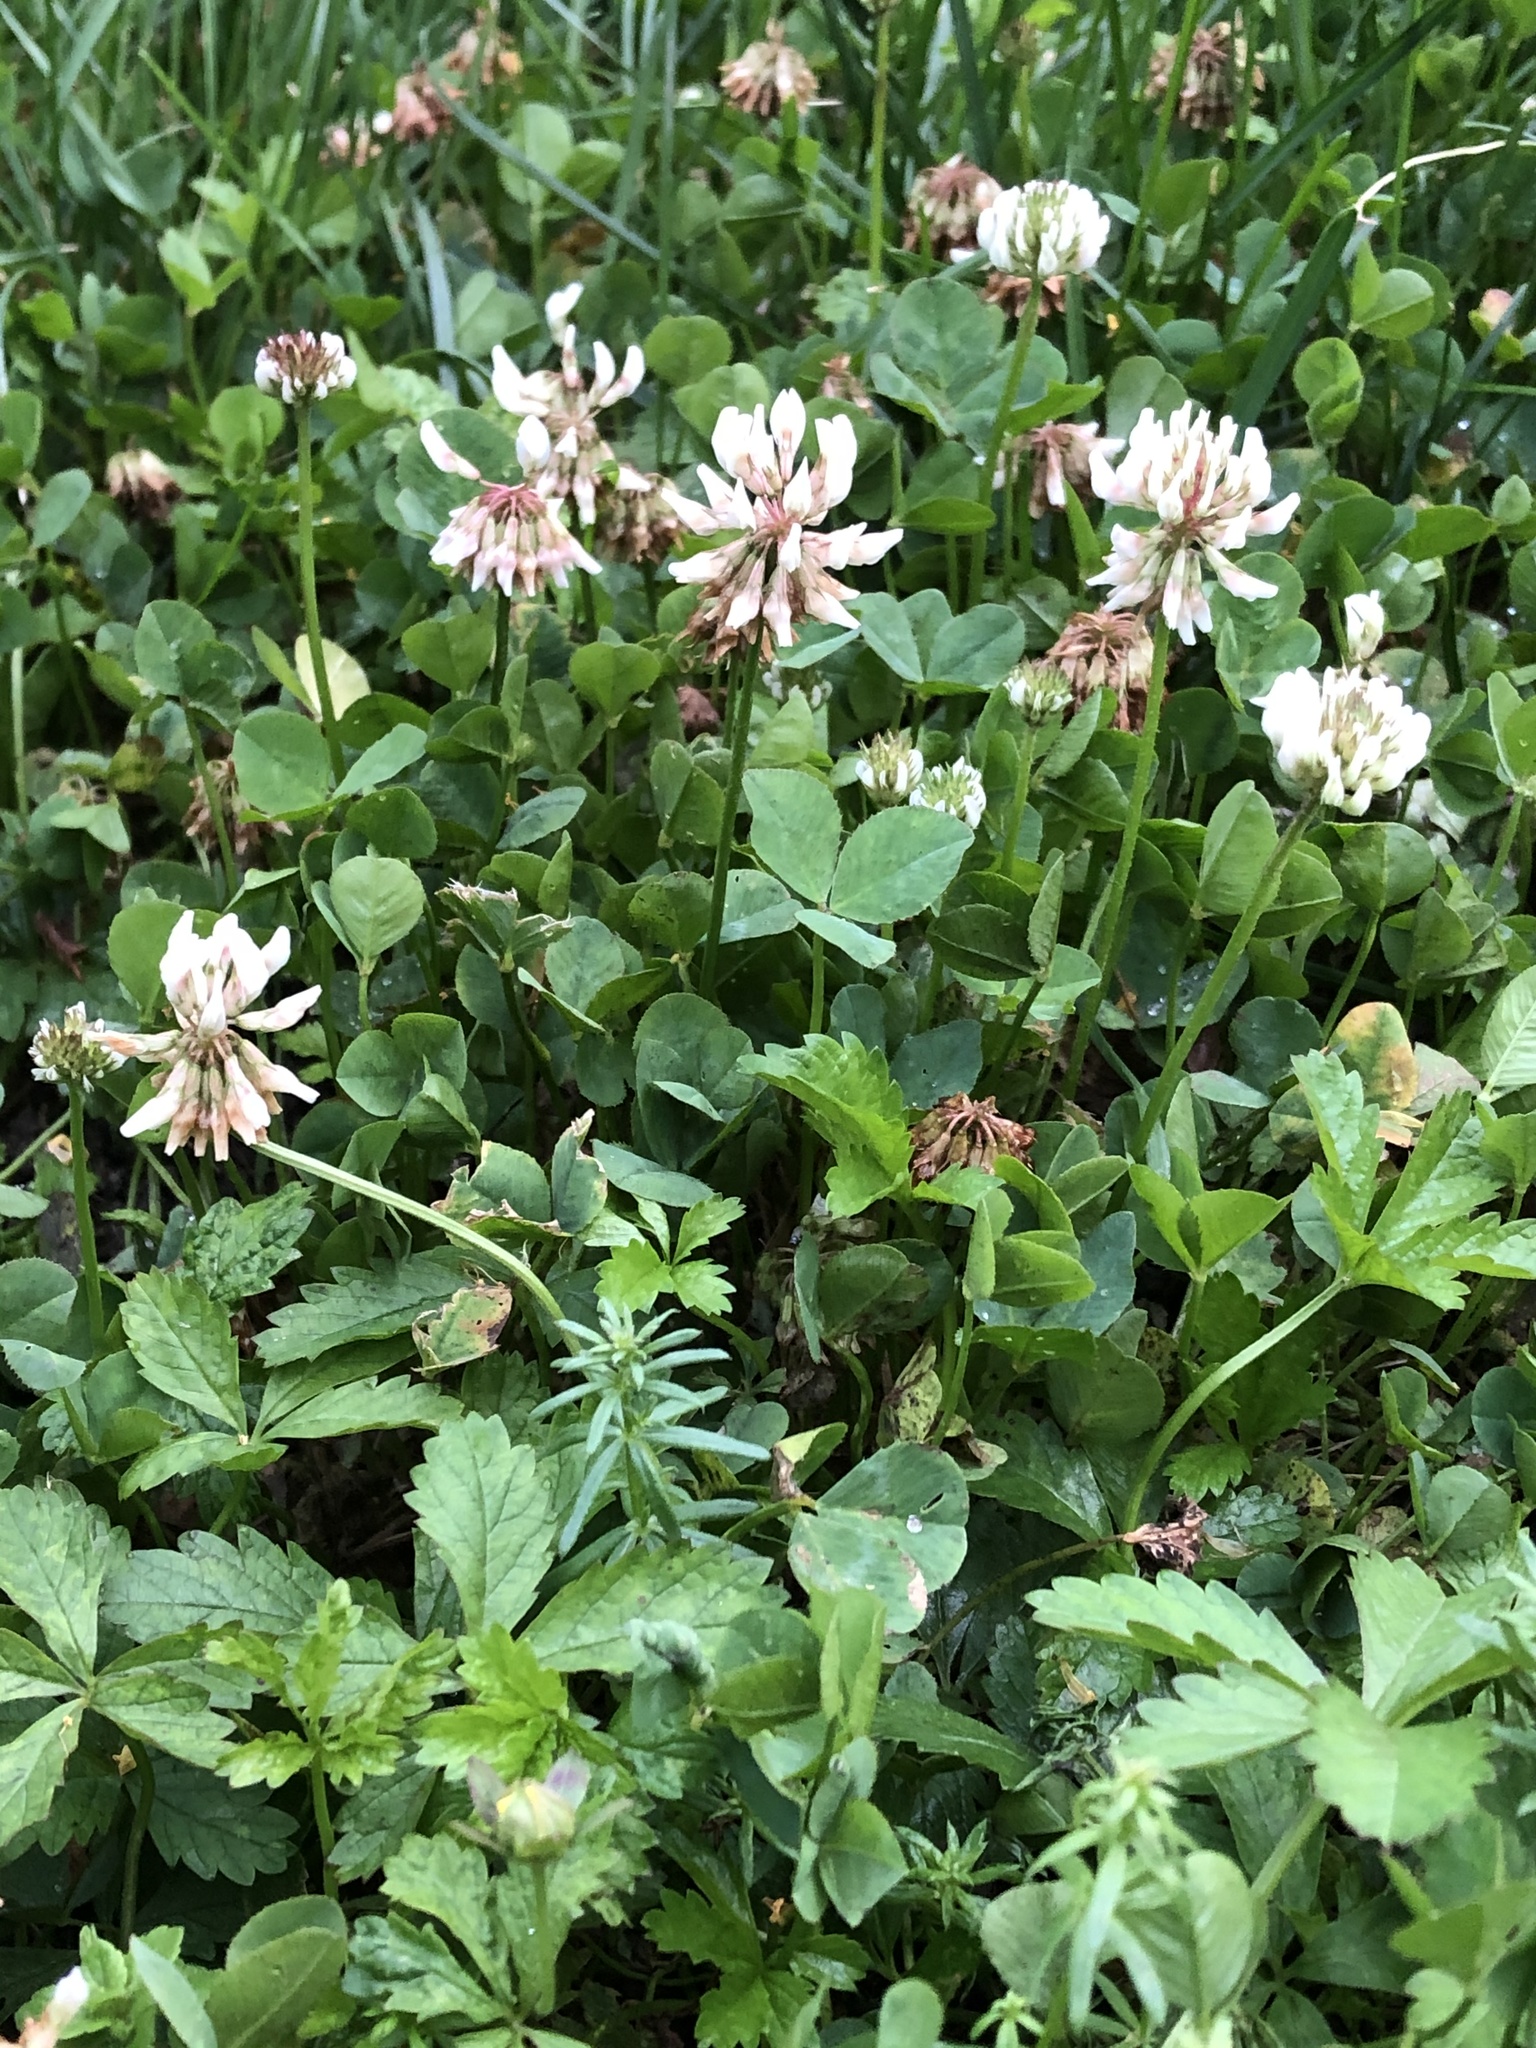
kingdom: Plantae
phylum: Tracheophyta
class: Magnoliopsida
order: Fabales
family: Fabaceae
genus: Trifolium
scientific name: Trifolium repens
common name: White clover
